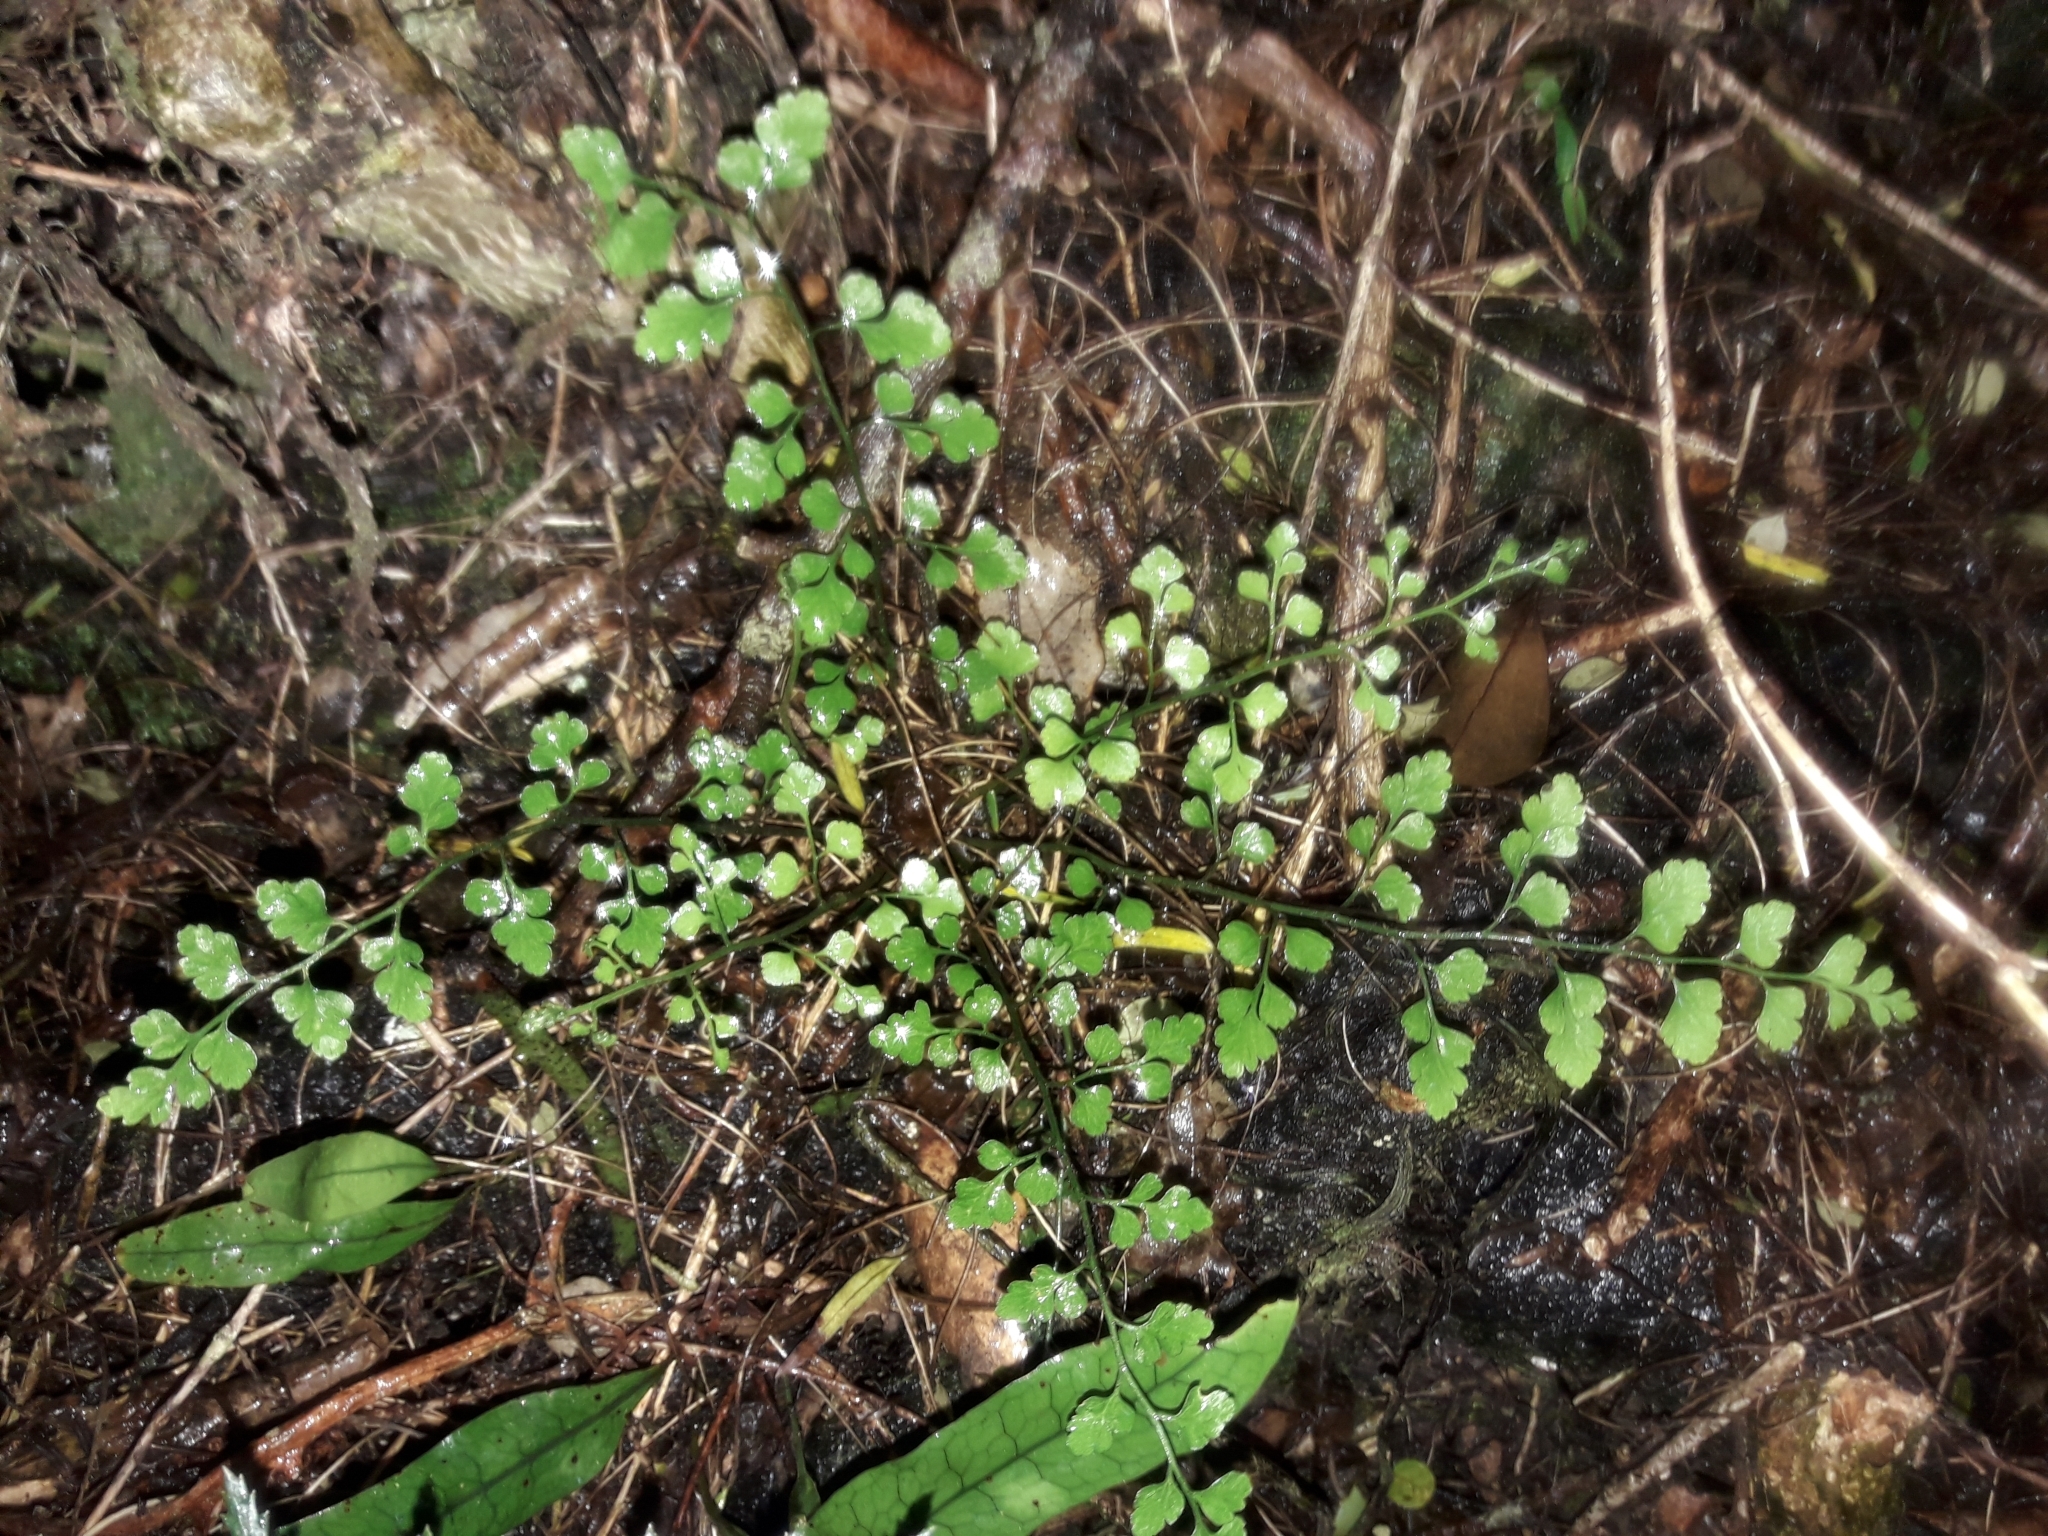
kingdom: Plantae
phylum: Tracheophyta
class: Polypodiopsida
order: Polypodiales
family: Aspleniaceae
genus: Asplenium
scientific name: Asplenium hookerianum
